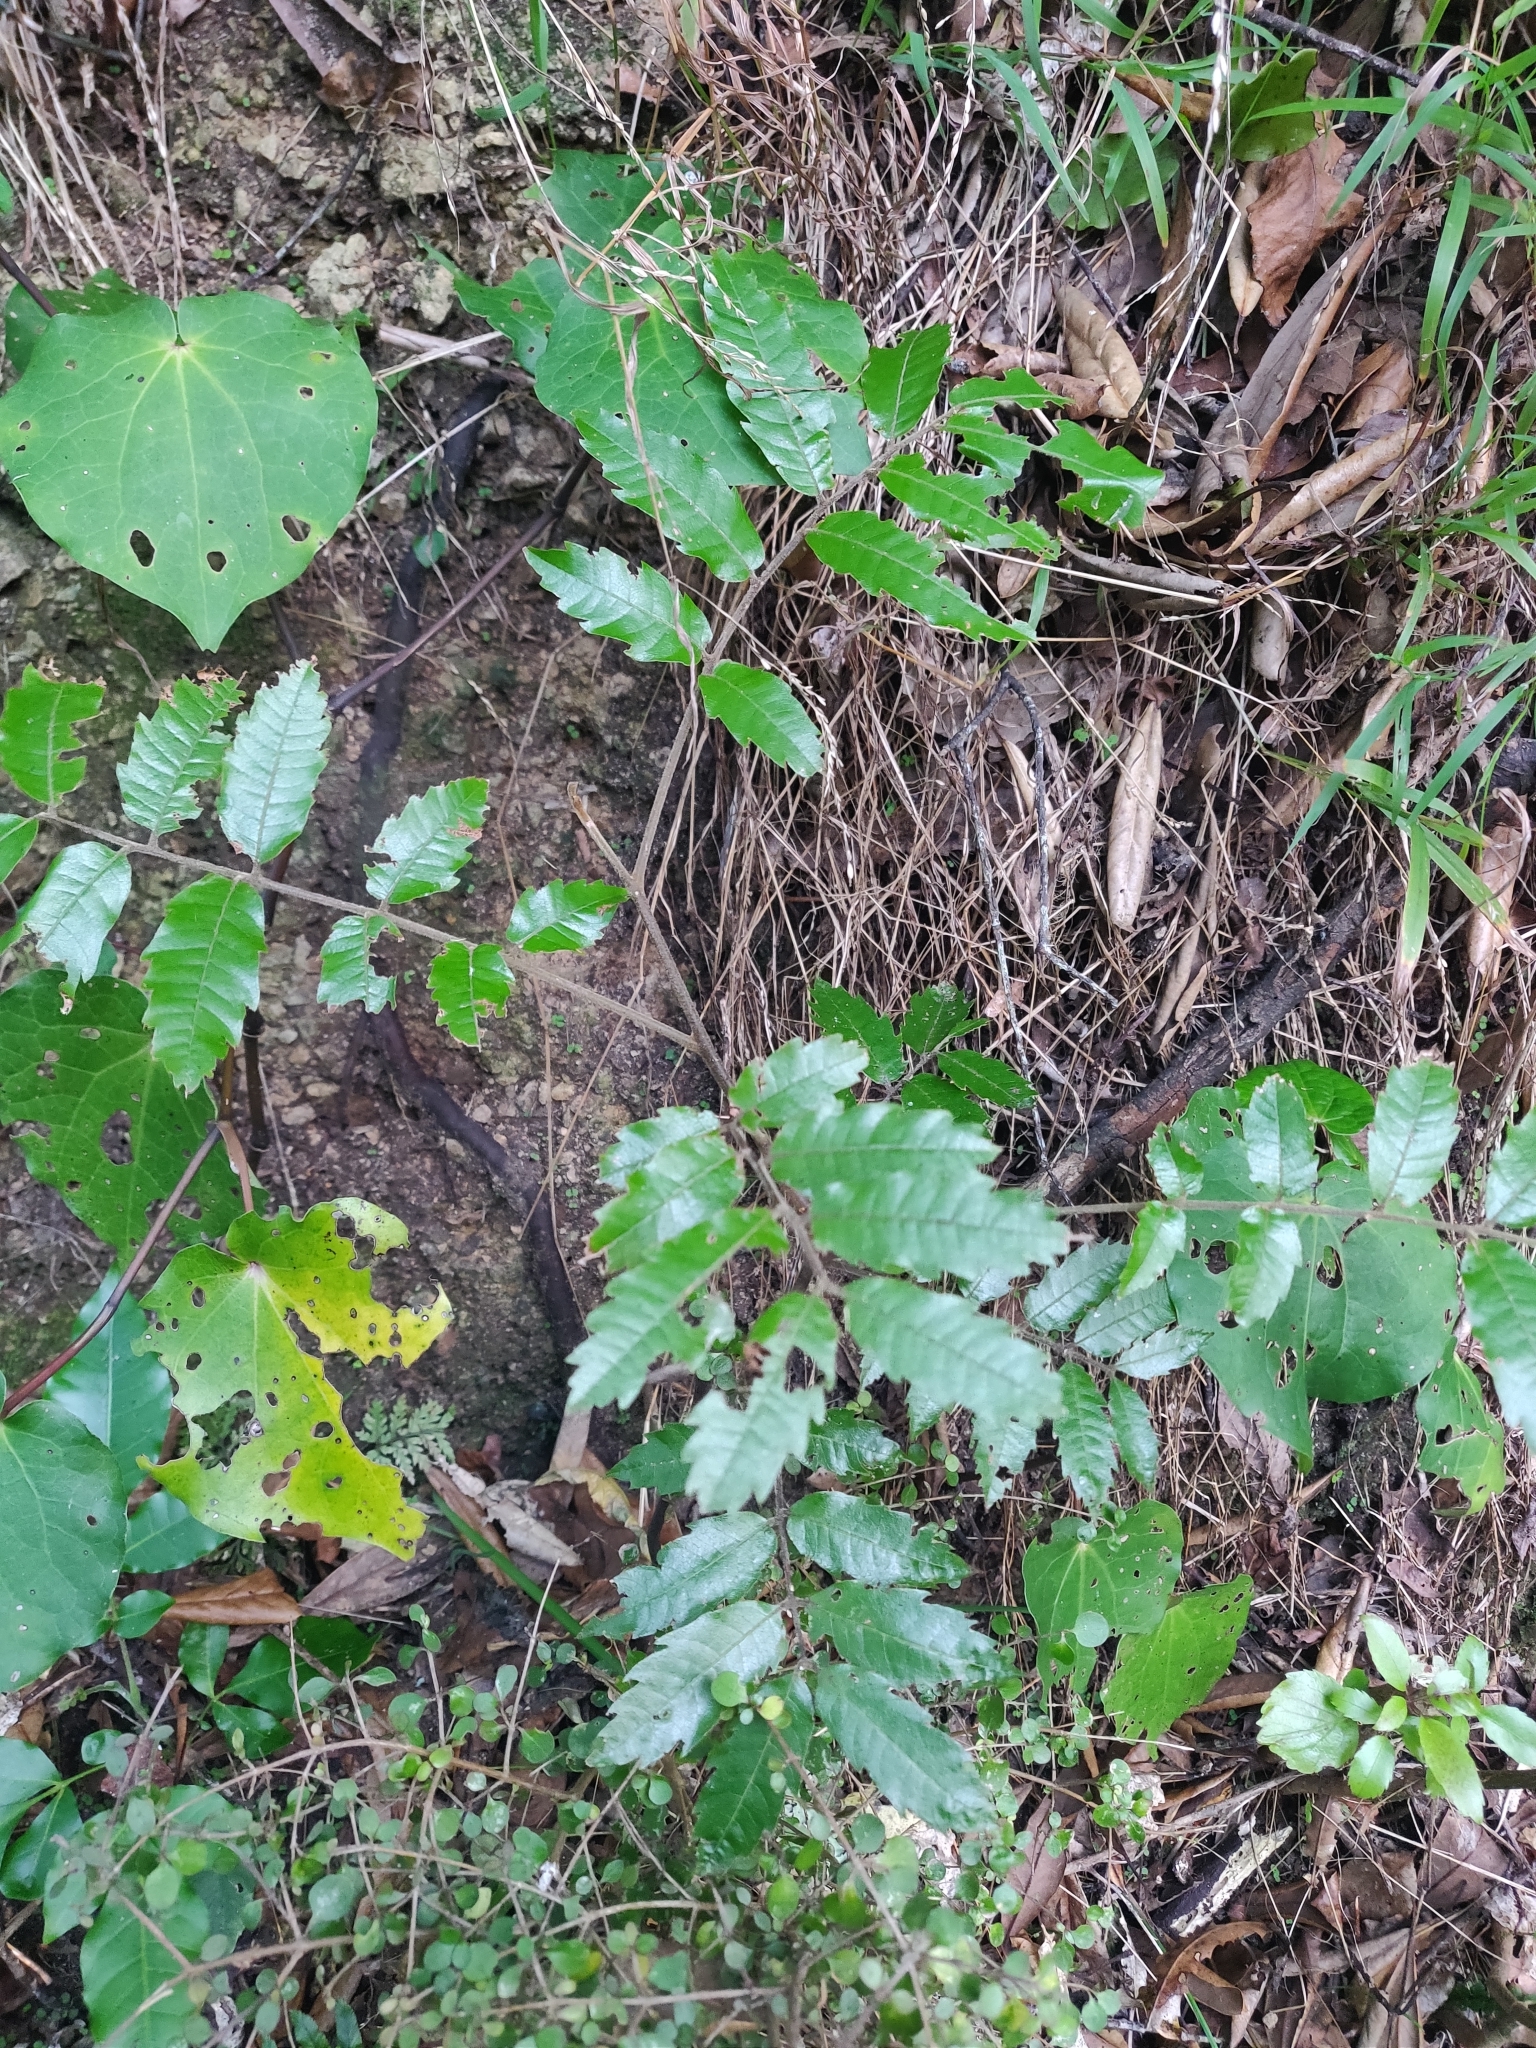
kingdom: Plantae
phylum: Tracheophyta
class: Magnoliopsida
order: Sapindales
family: Sapindaceae
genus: Alectryon
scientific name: Alectryon excelsus
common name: Three kings titoki
